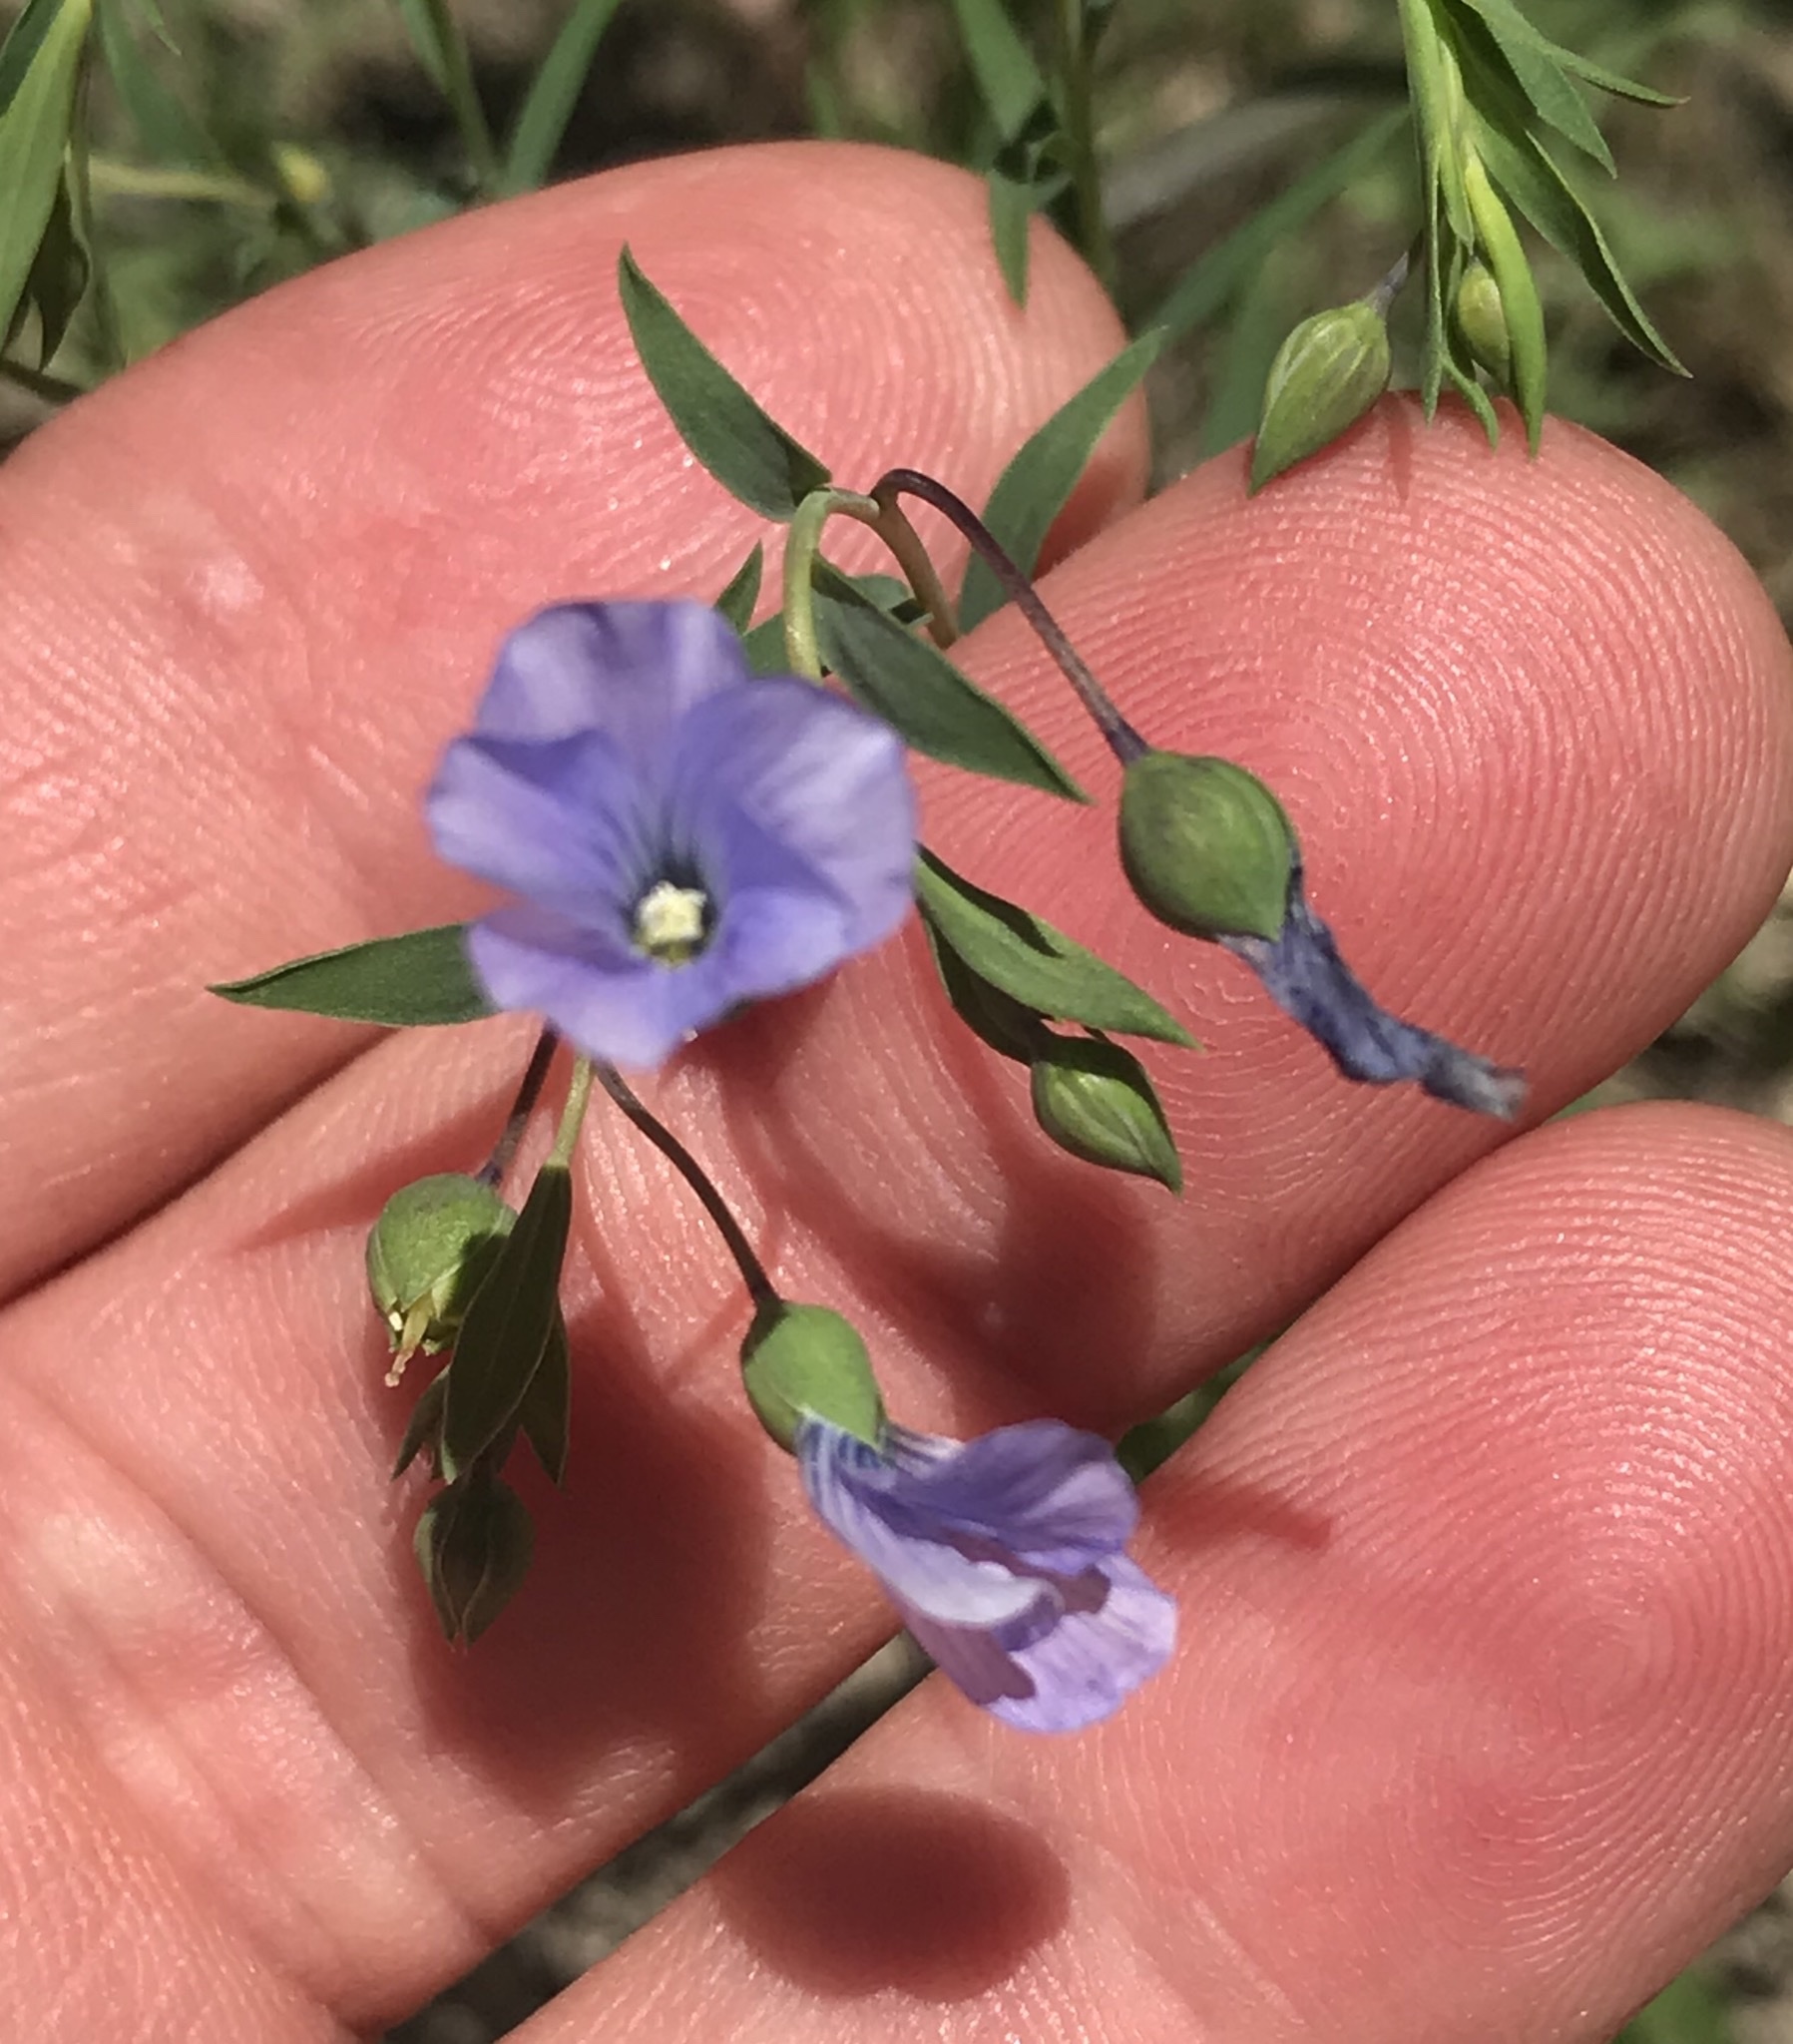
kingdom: Plantae
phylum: Tracheophyta
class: Magnoliopsida
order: Malpighiales
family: Linaceae
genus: Linum
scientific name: Linum pratense
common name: Norton's flax
